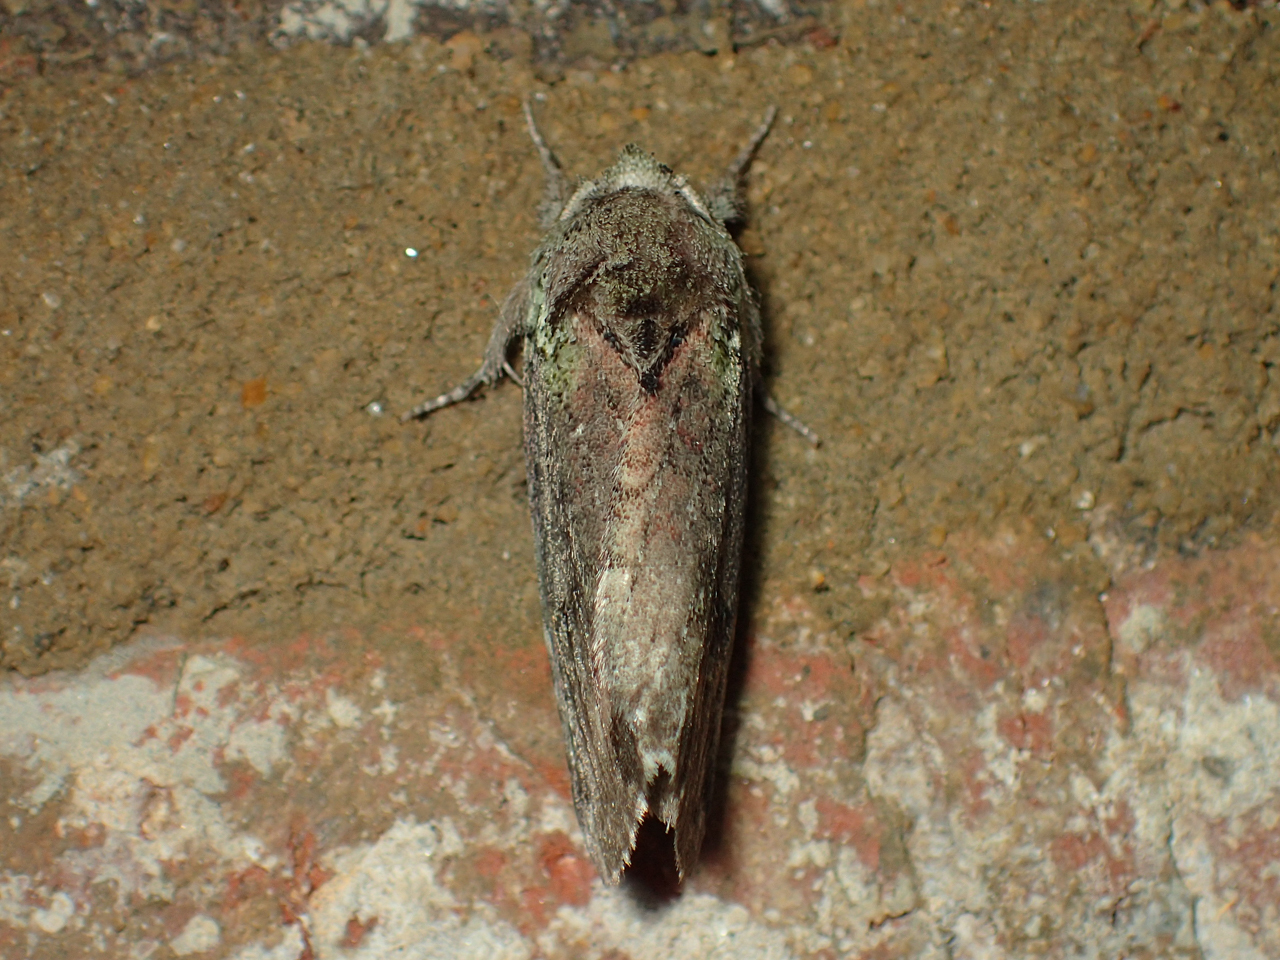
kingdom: Animalia
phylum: Arthropoda
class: Insecta
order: Lepidoptera
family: Notodontidae
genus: Schizura
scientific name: Schizura
